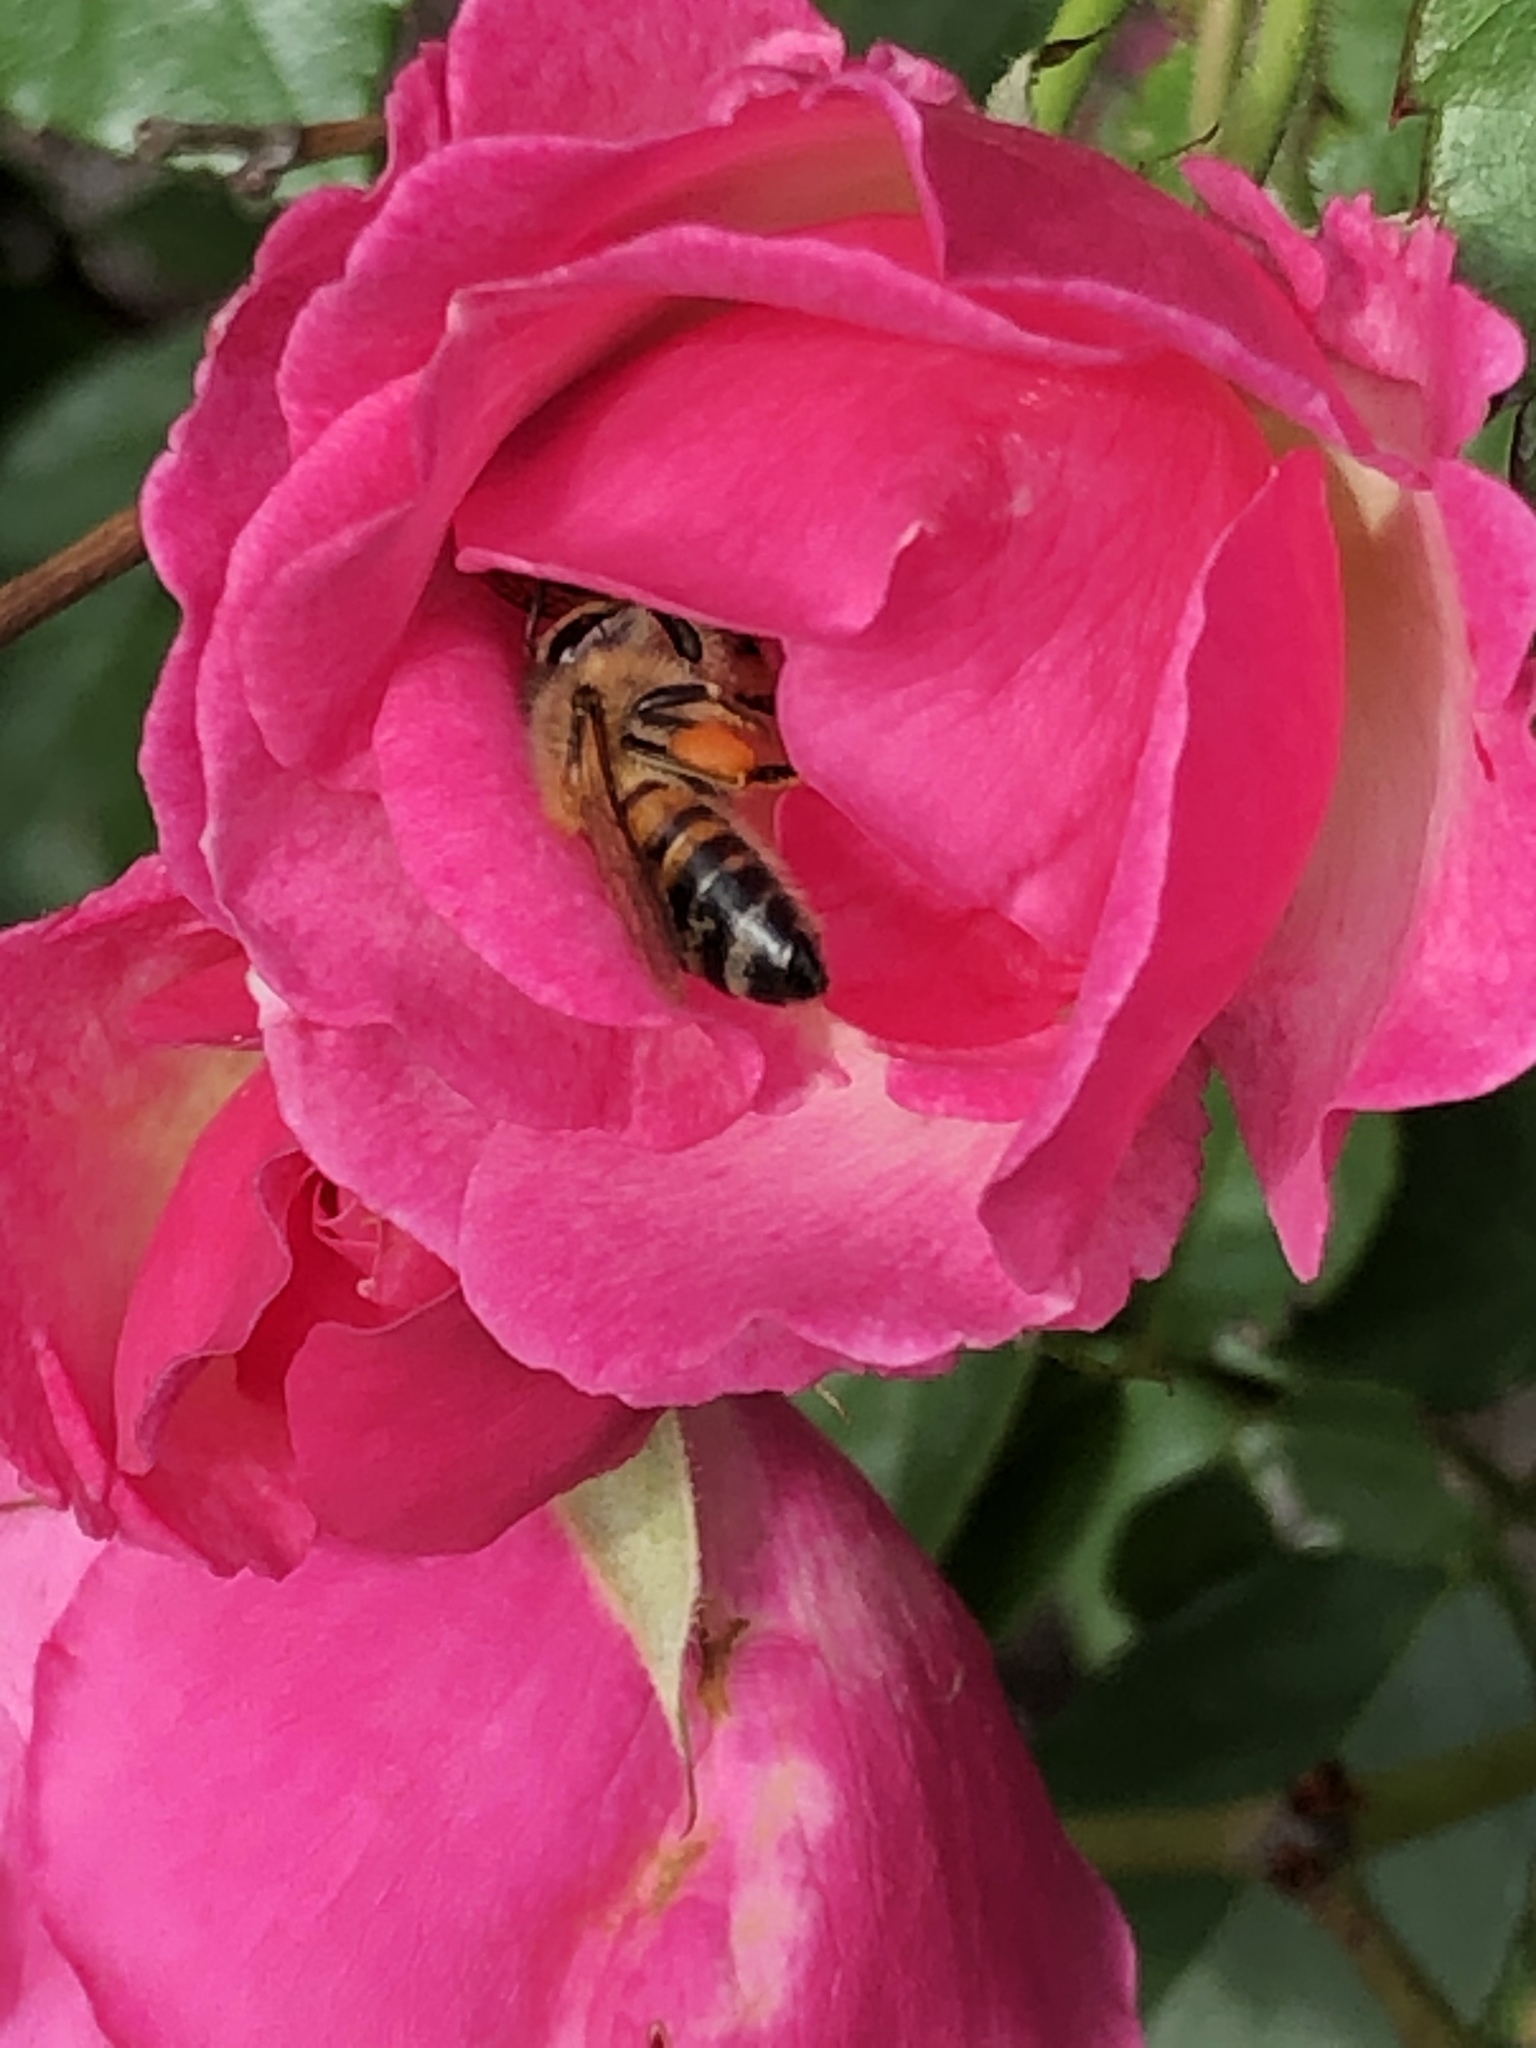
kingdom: Animalia
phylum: Arthropoda
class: Insecta
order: Hymenoptera
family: Apidae
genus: Apis
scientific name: Apis mellifera
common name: Honey bee
